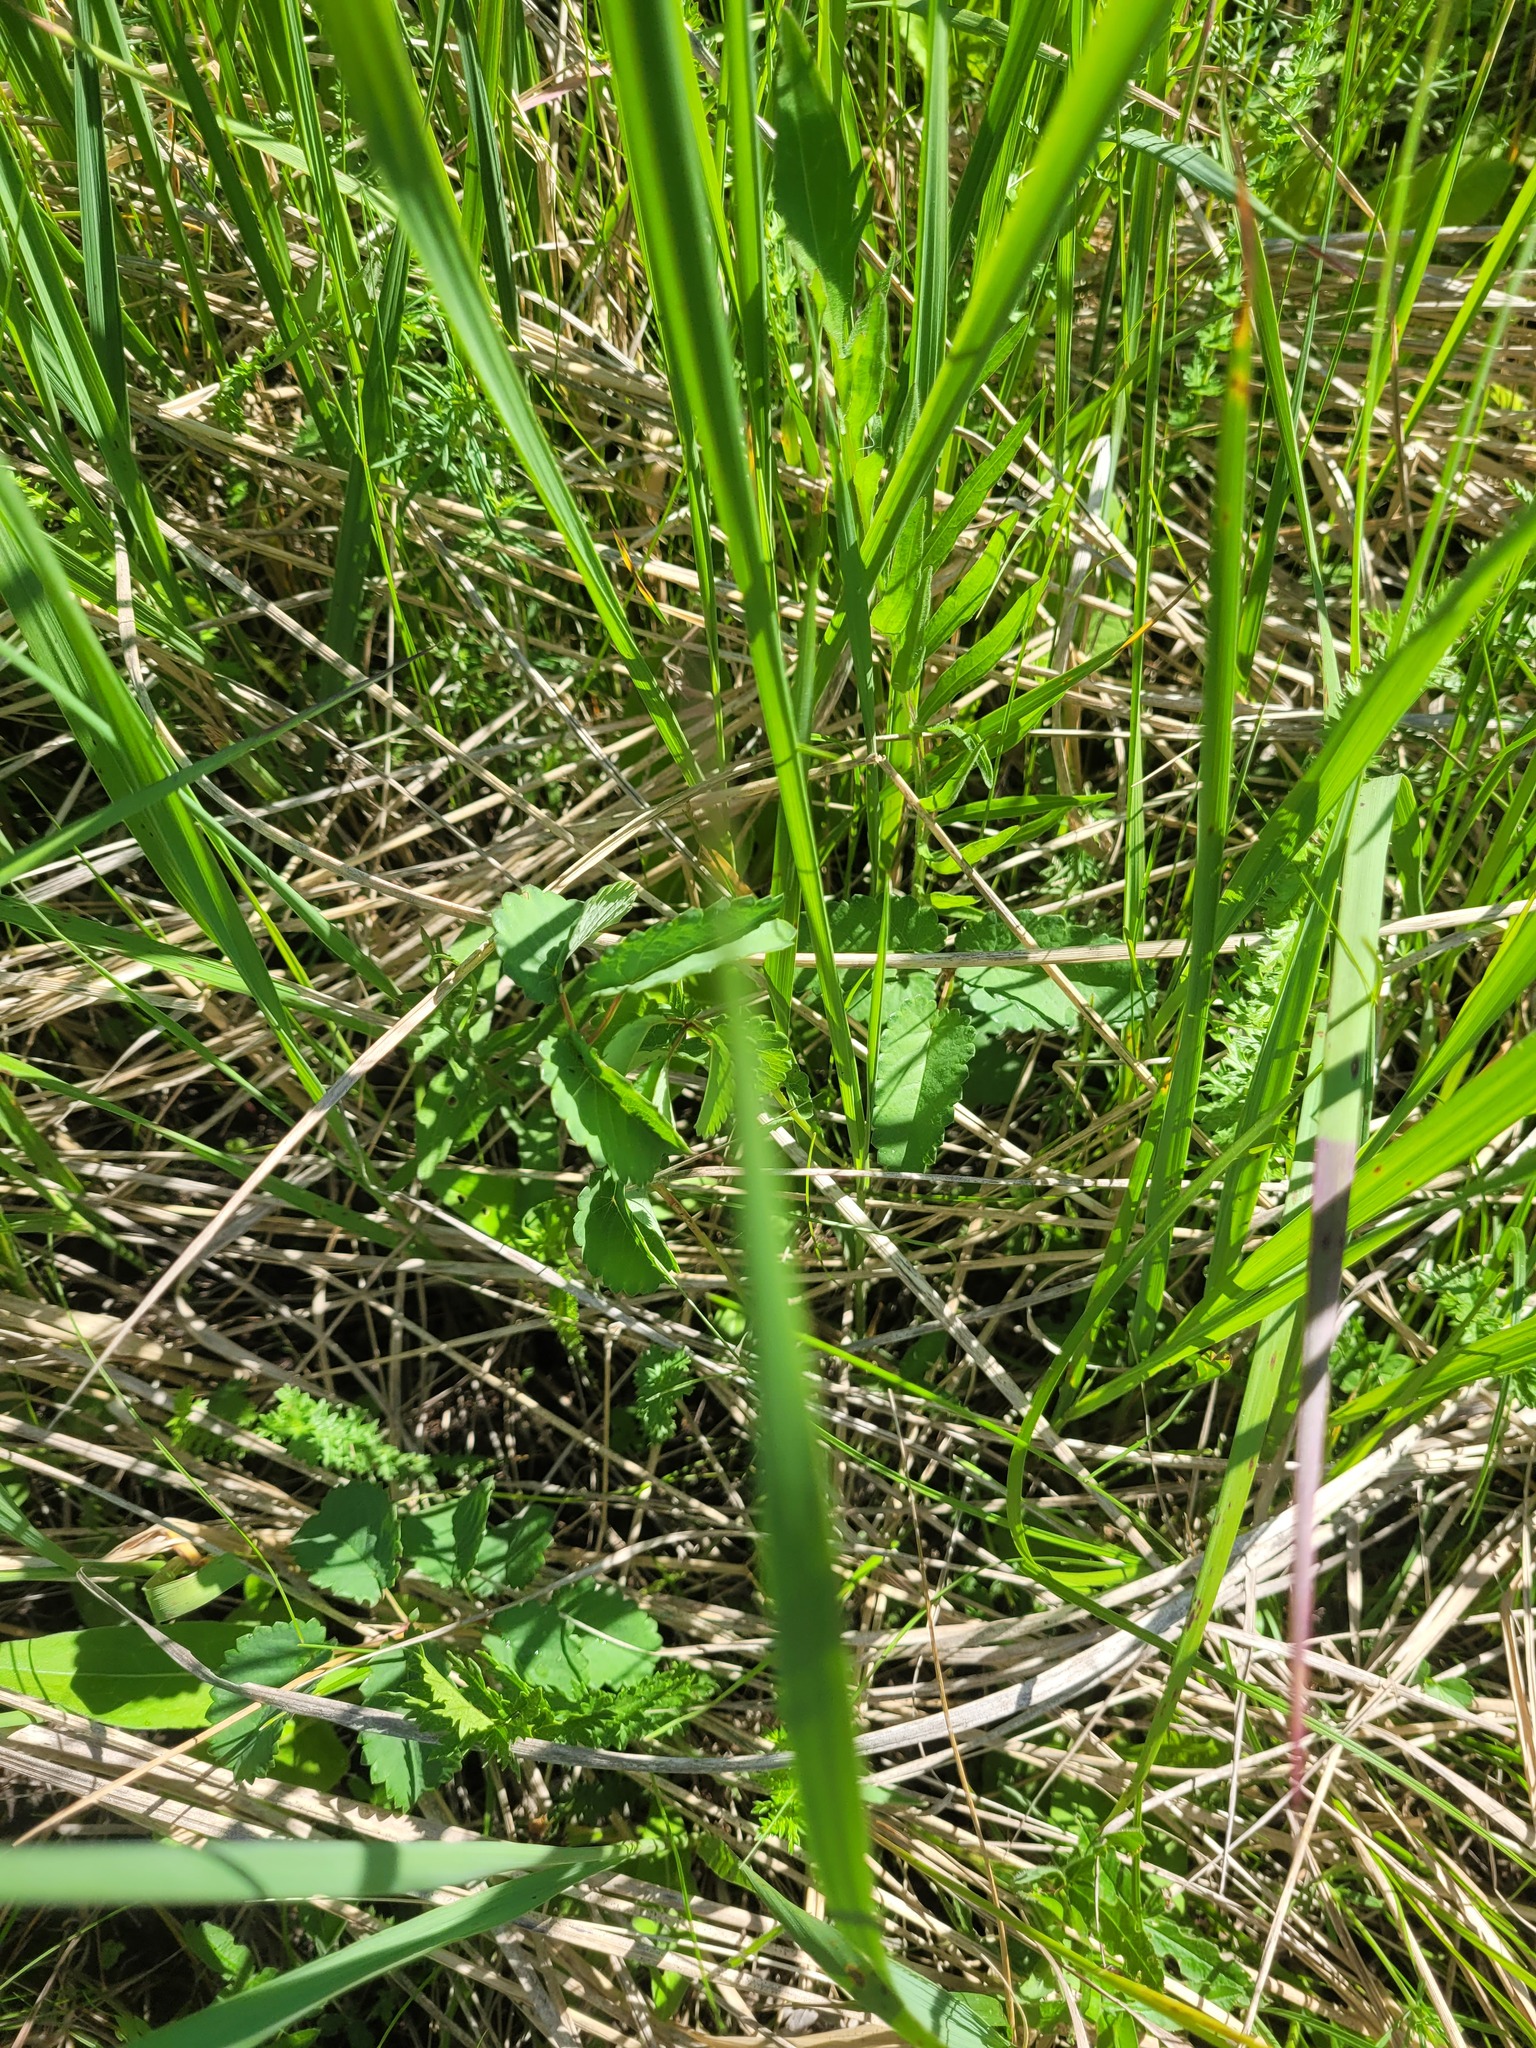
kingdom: Plantae
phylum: Tracheophyta
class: Magnoliopsida
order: Rosales
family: Rosaceae
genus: Sanguisorba
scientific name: Sanguisorba officinalis
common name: Great burnet
